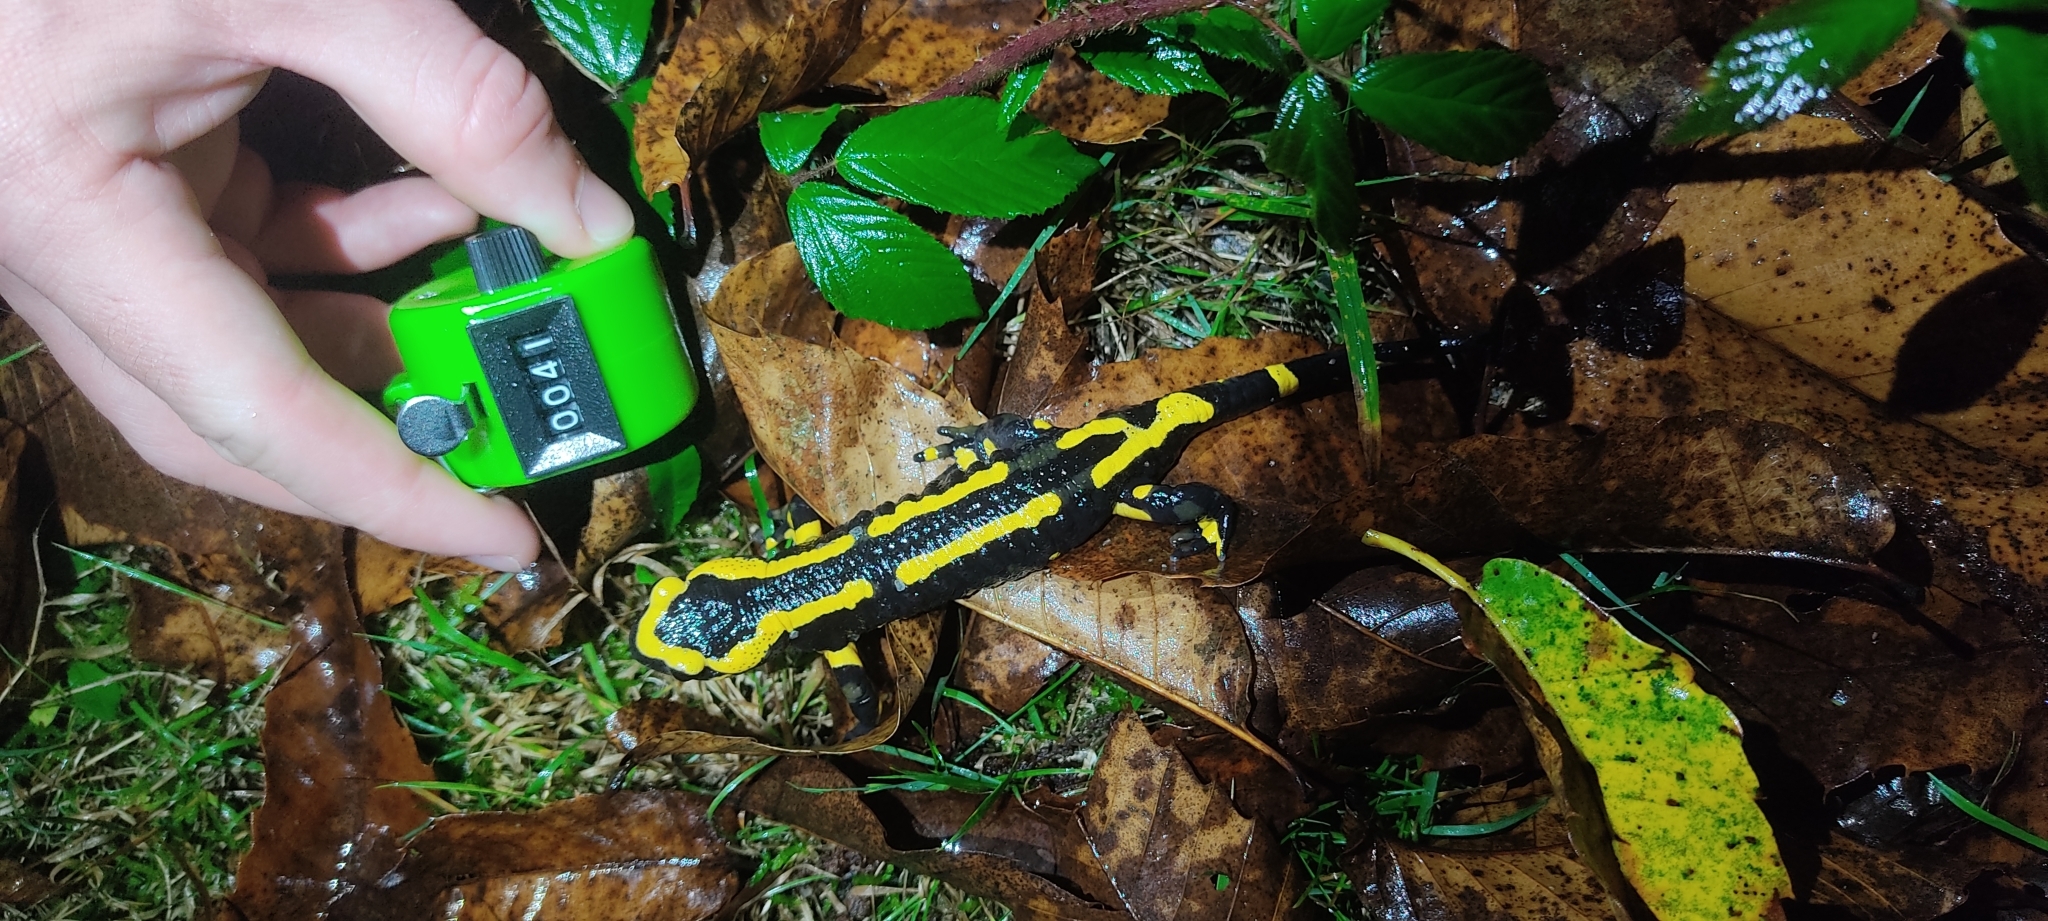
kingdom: Animalia
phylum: Chordata
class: Amphibia
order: Caudata
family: Salamandridae
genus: Salamandra
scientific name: Salamandra salamandra
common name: Fire salamander
